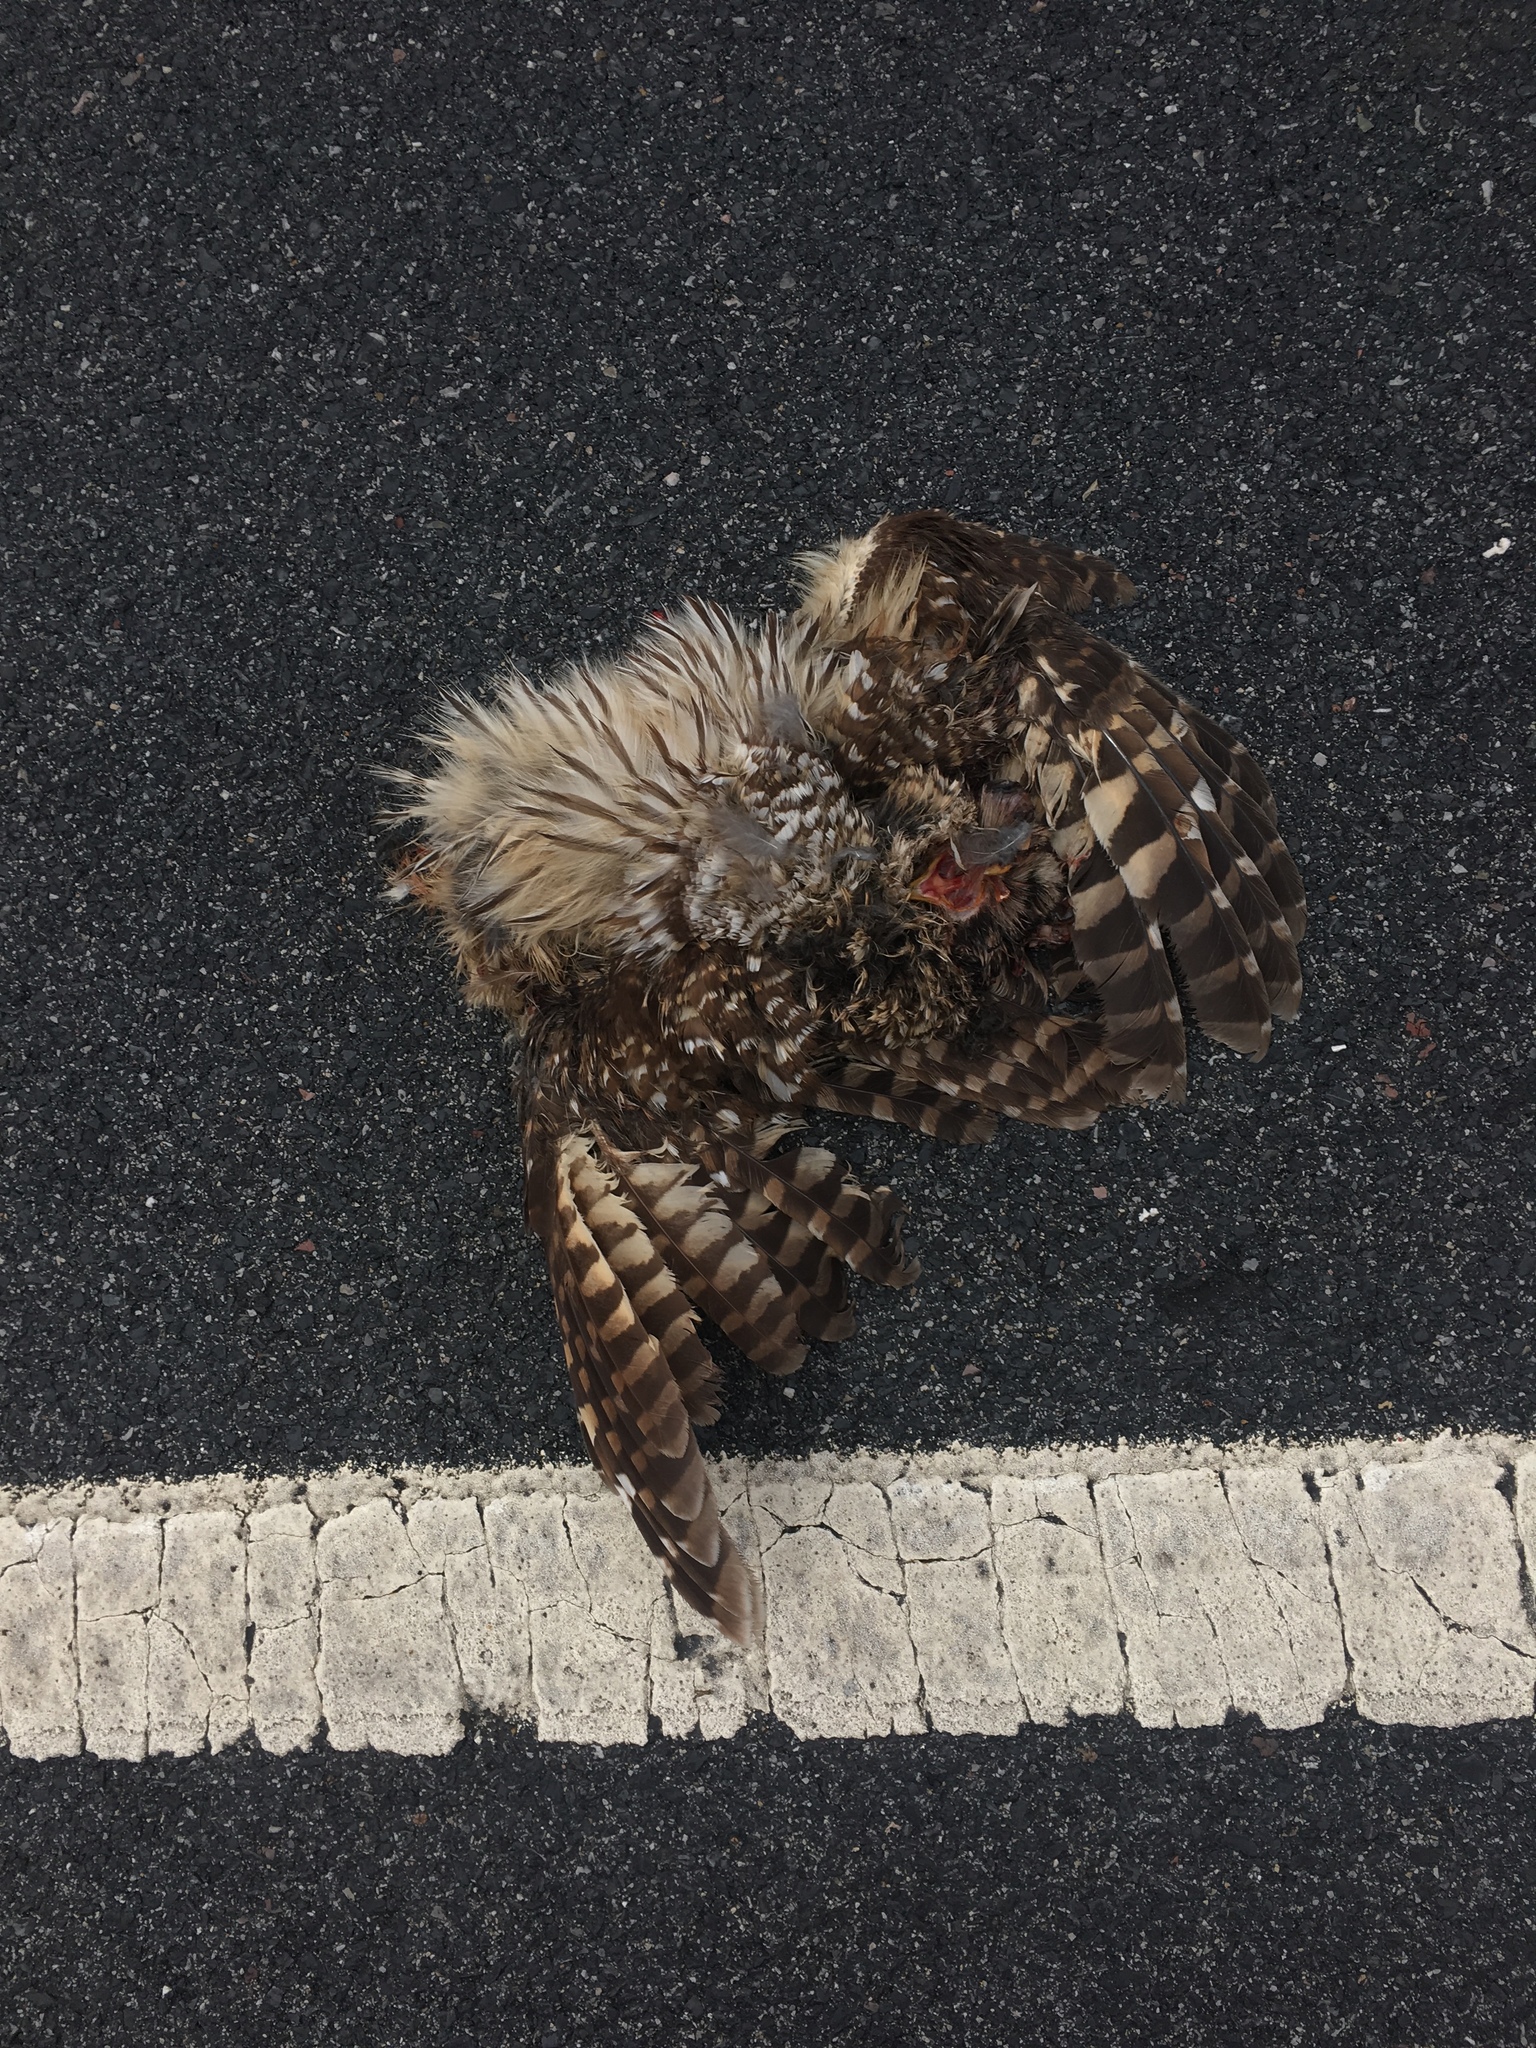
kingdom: Animalia
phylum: Chordata
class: Aves
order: Strigiformes
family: Strigidae
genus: Strix
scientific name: Strix varia
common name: Barred owl
